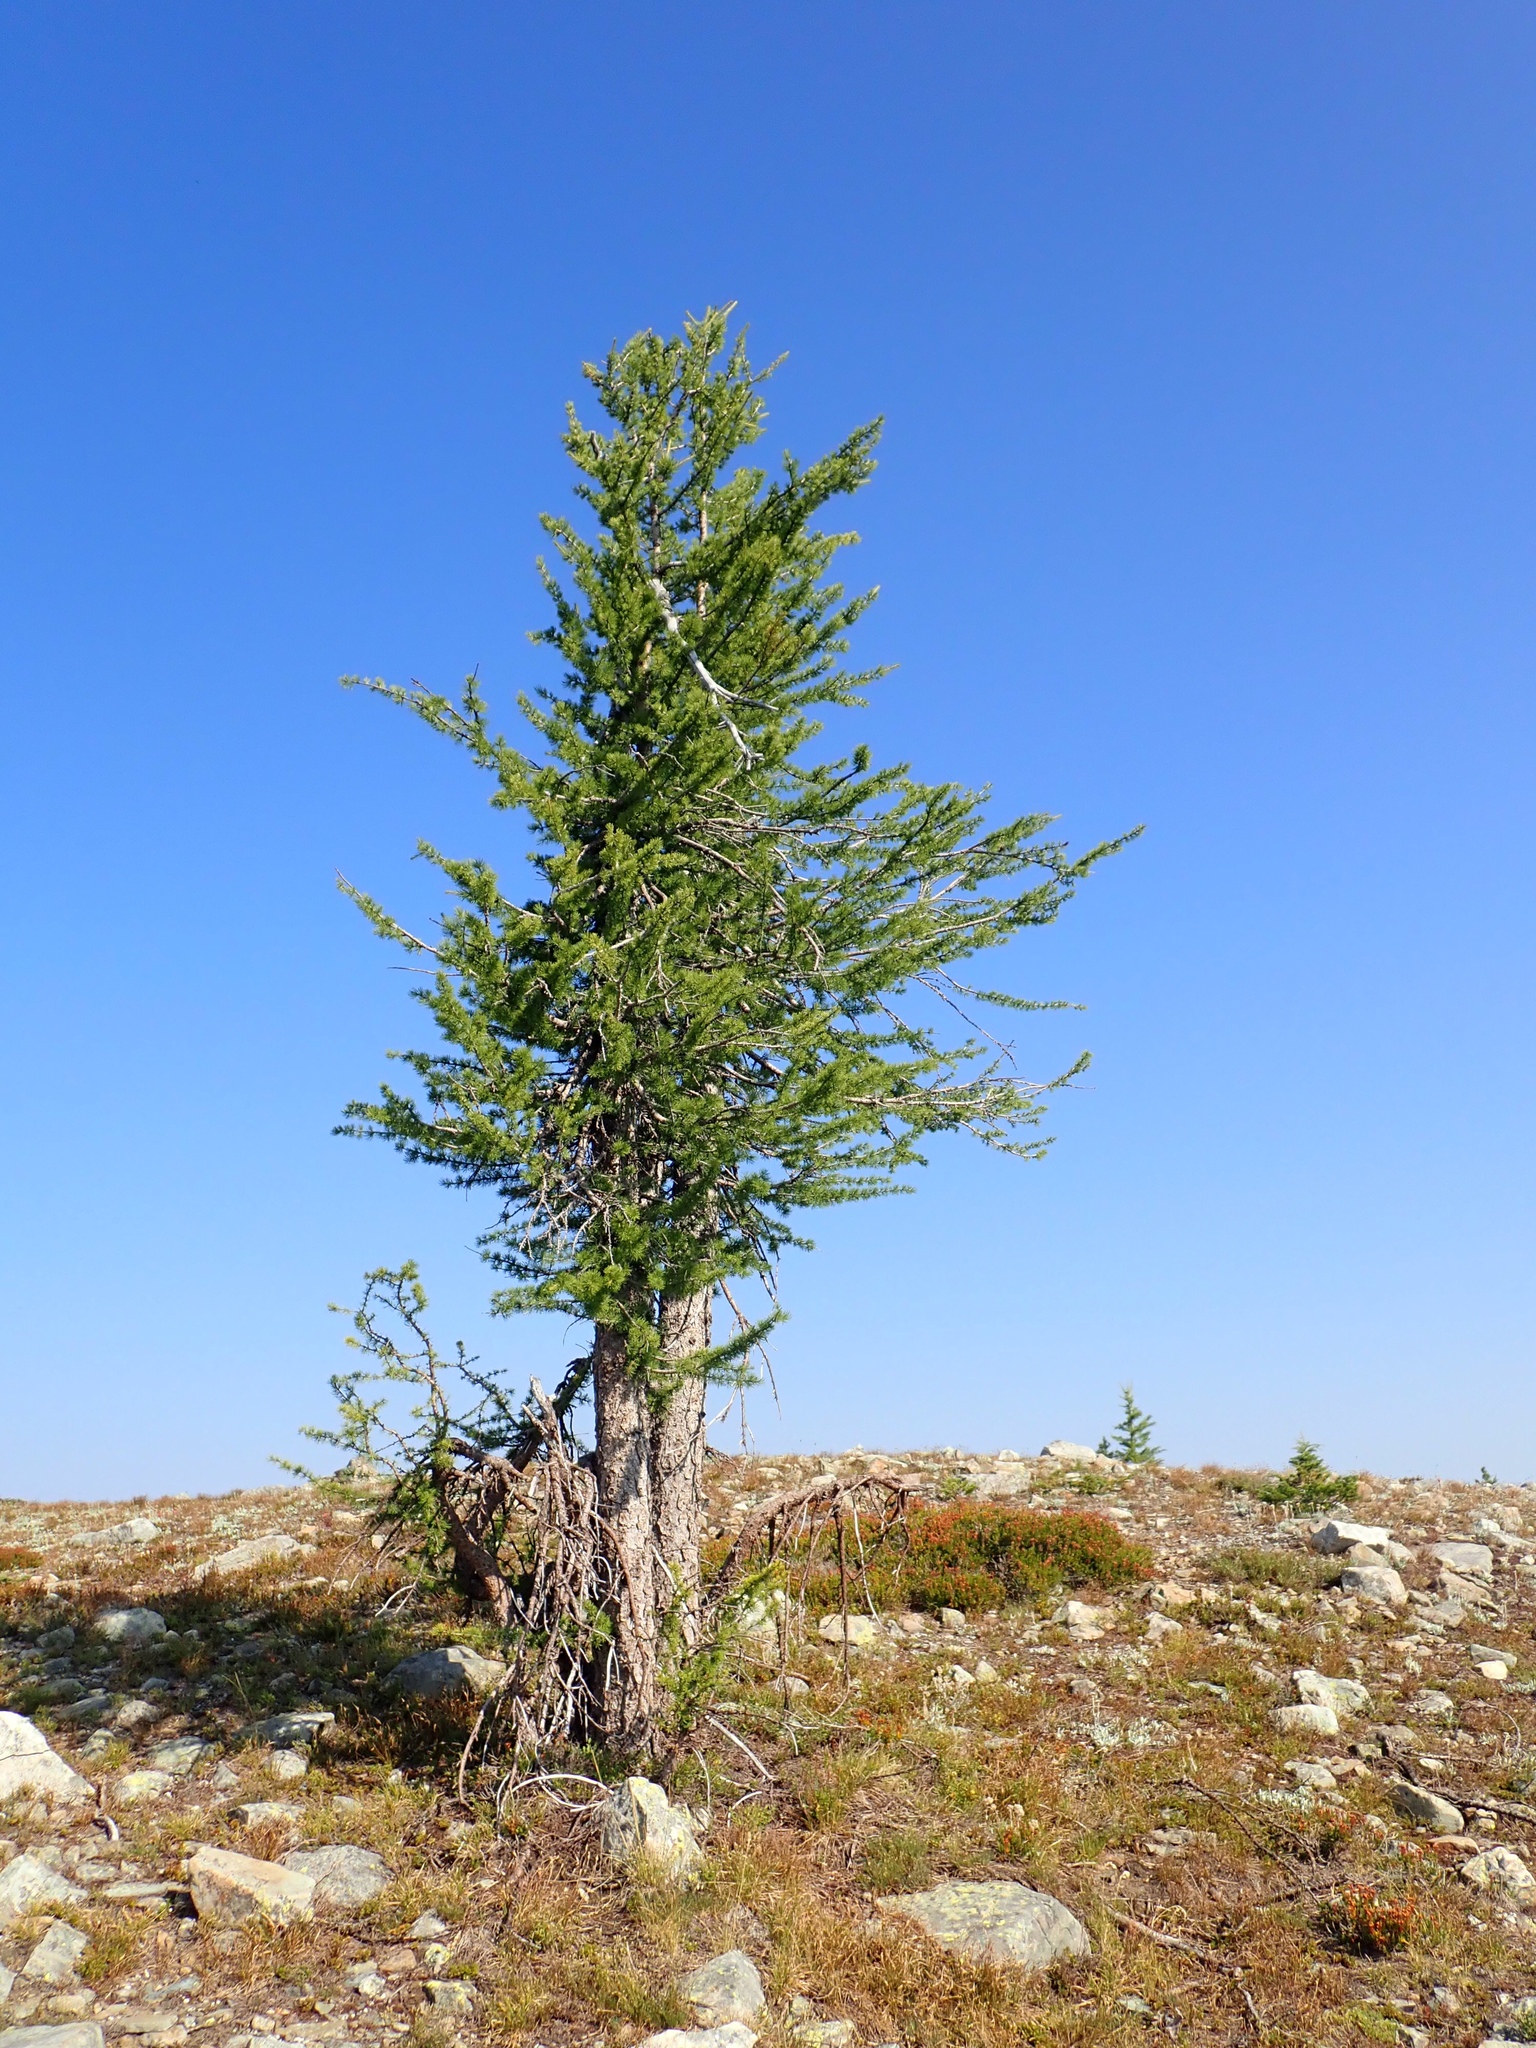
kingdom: Plantae
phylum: Tracheophyta
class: Pinopsida
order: Pinales
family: Pinaceae
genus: Larix
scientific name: Larix lyallii
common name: Alpine larch
